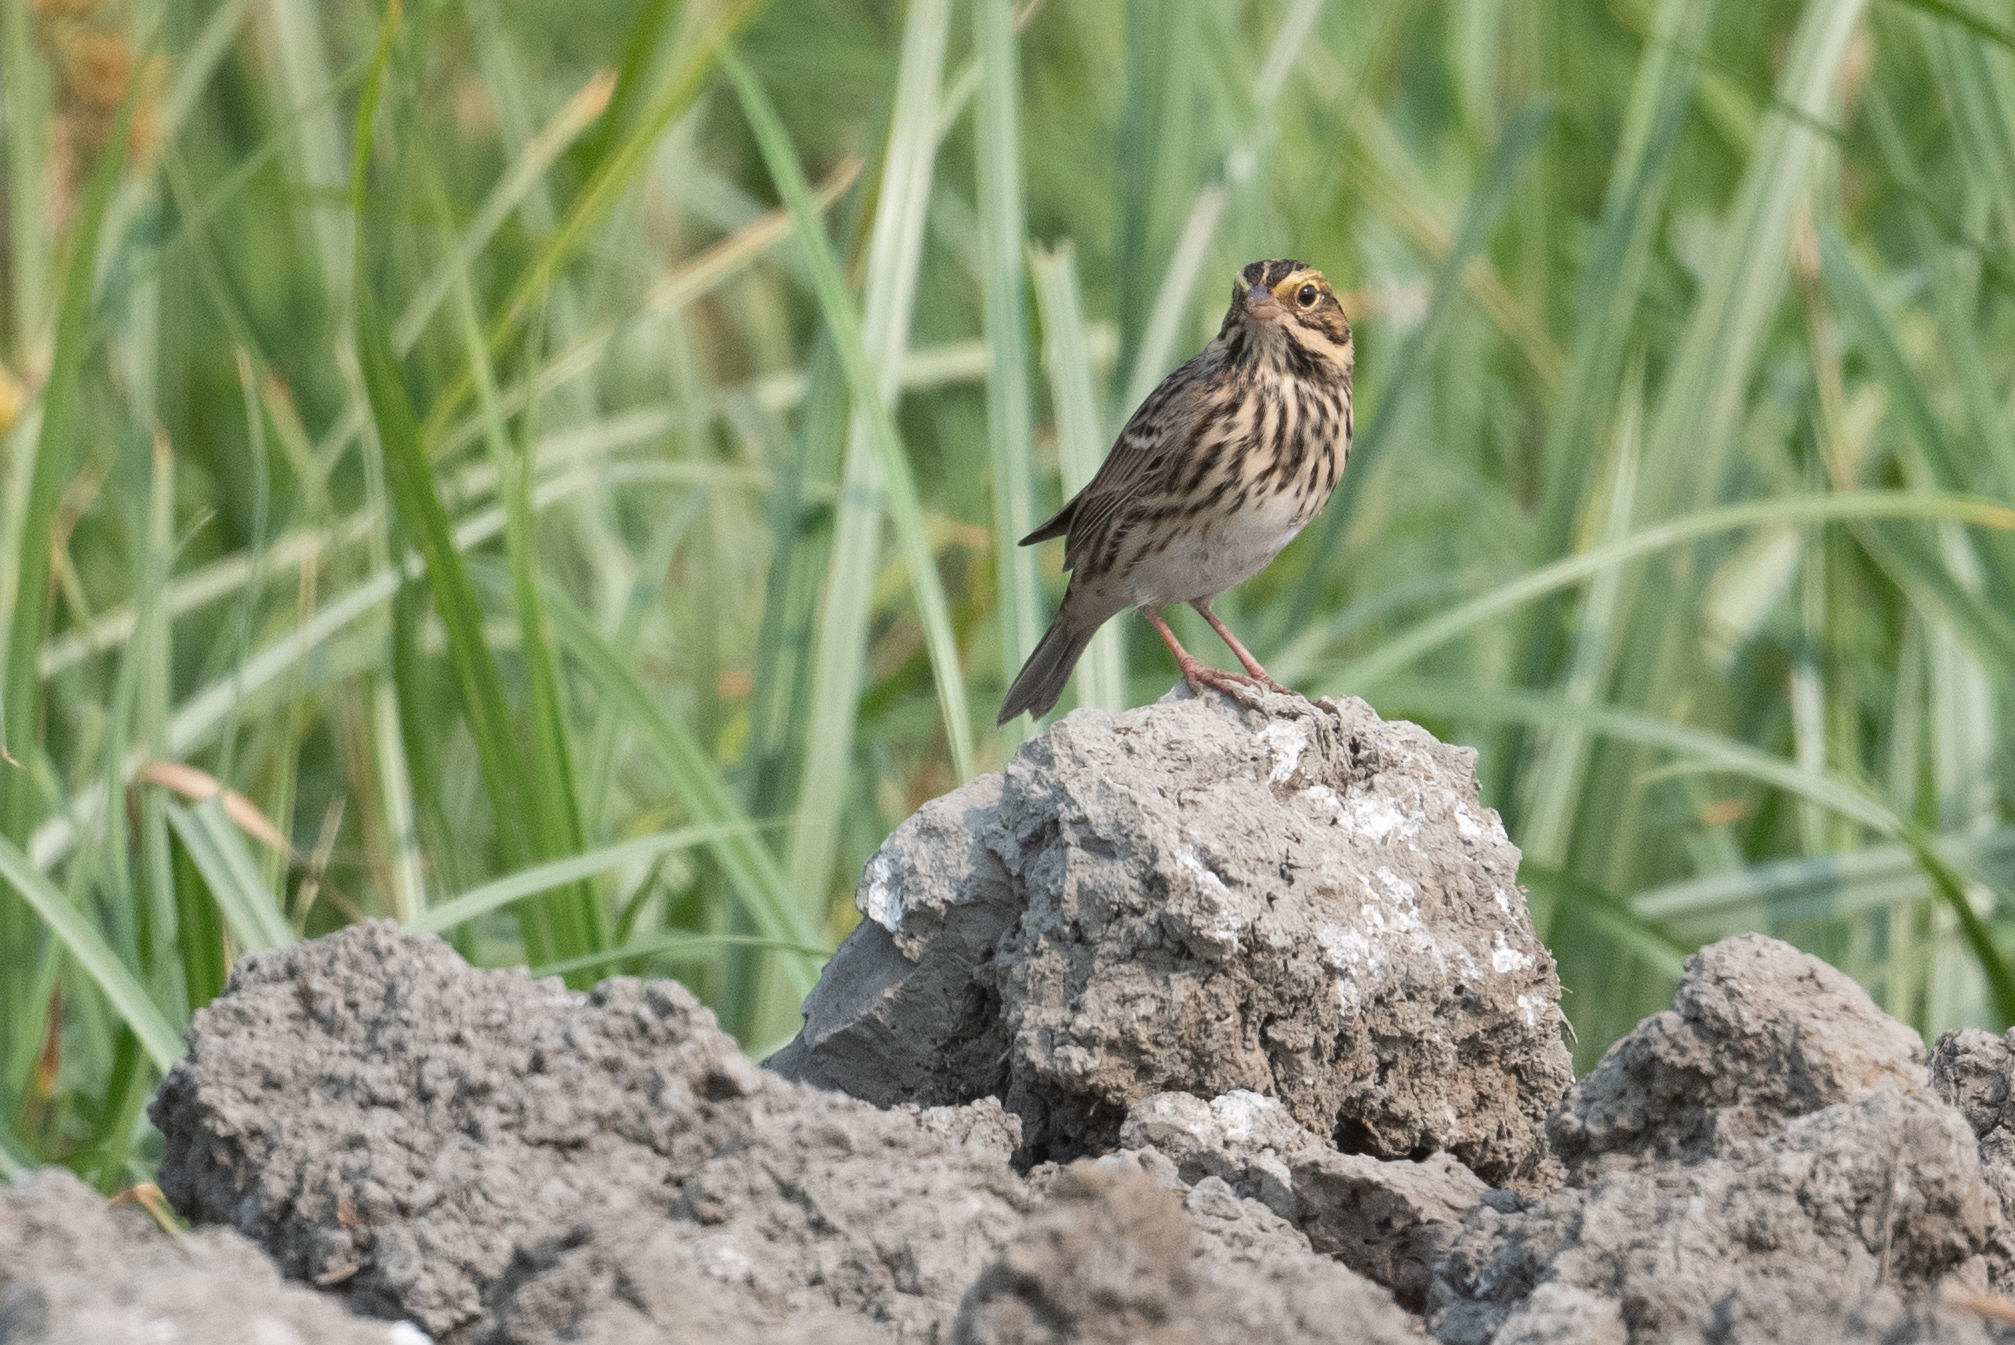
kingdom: Animalia
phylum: Chordata
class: Aves
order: Passeriformes
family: Passerellidae
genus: Passerculus
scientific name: Passerculus sandwichensis
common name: Savannah sparrow
